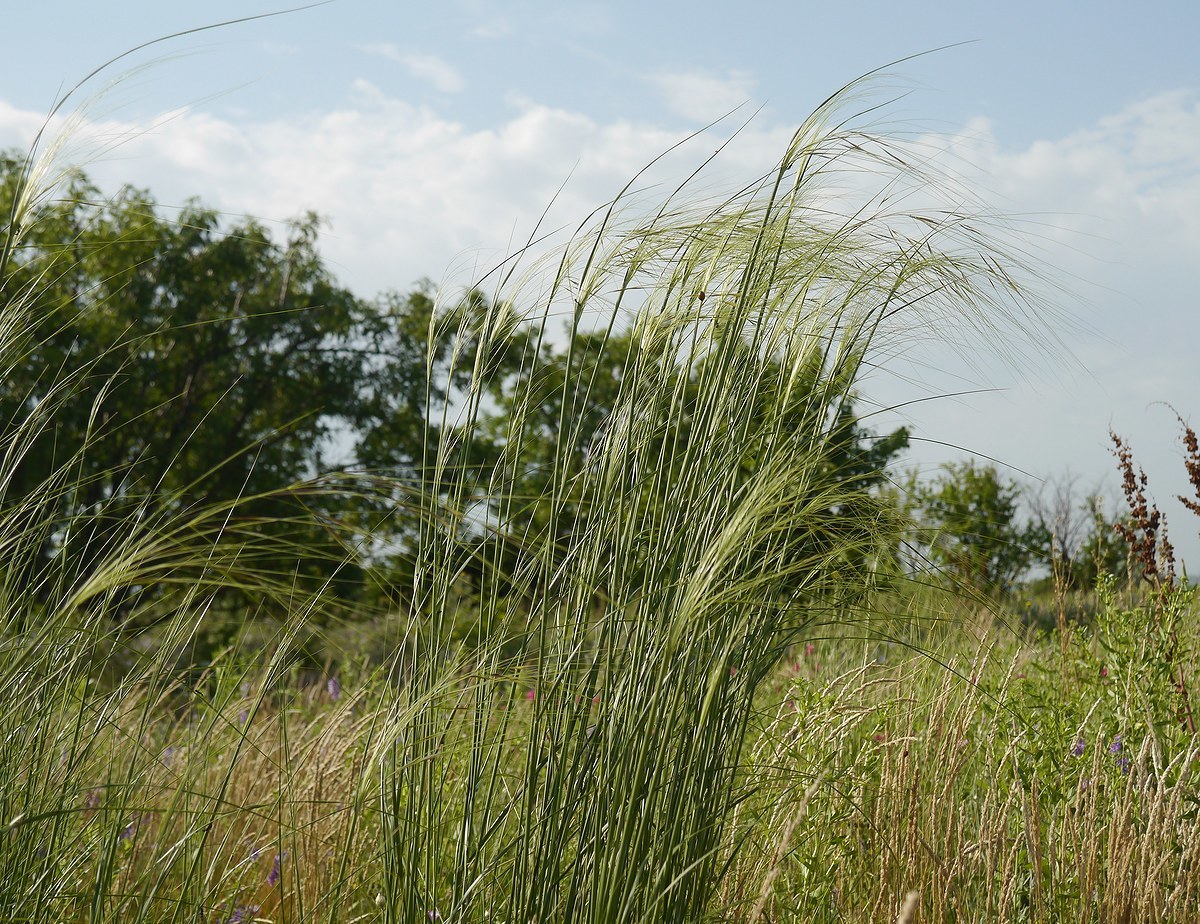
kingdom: Plantae
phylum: Tracheophyta
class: Liliopsida
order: Poales
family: Poaceae
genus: Stipa
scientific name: Stipa capillata
